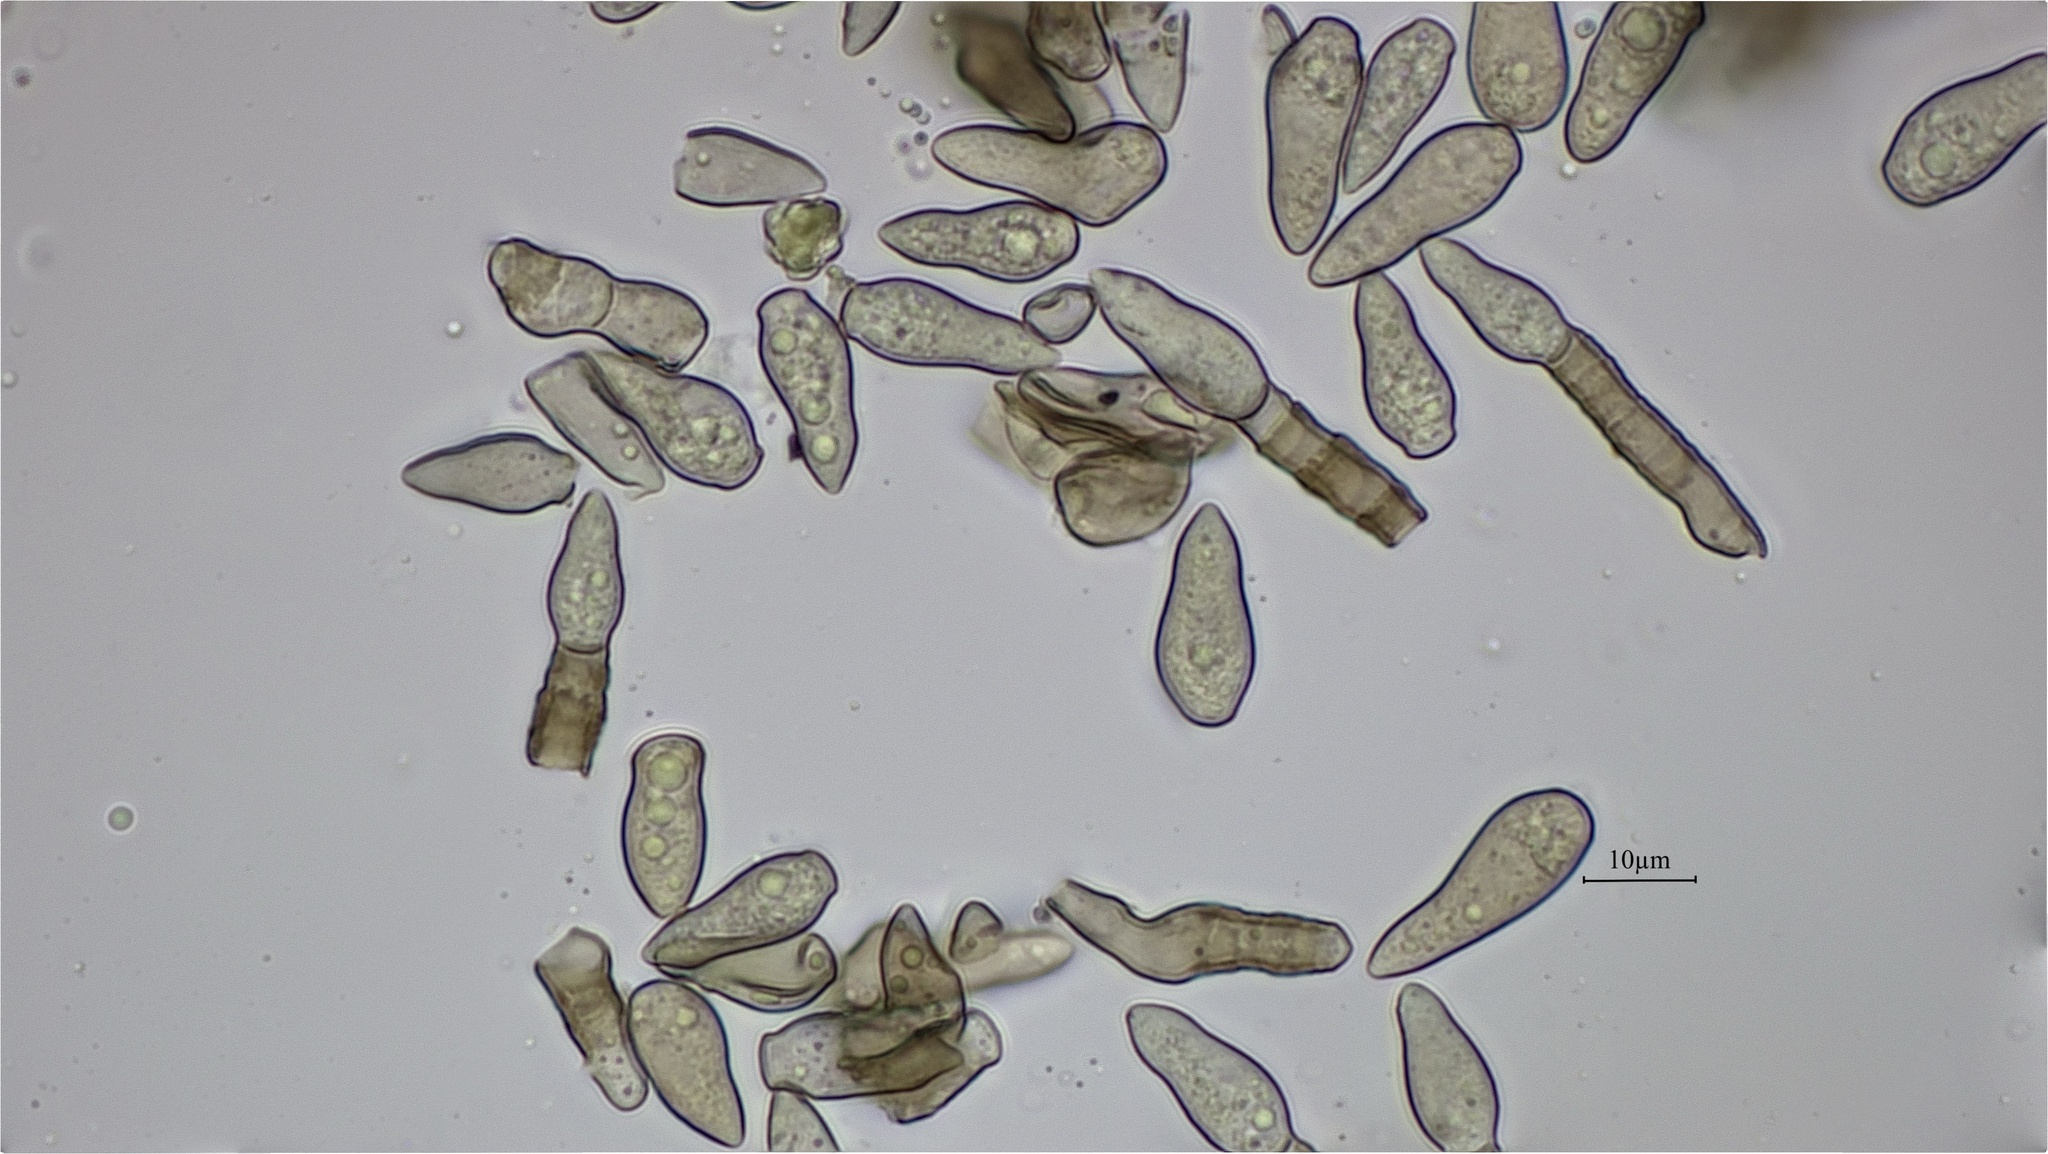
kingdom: Fungi
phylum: Ascomycota
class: Dothideomycetes
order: Venturiales
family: Venturiaceae
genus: Venturia
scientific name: Venturia inaequalis
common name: Apple scab
